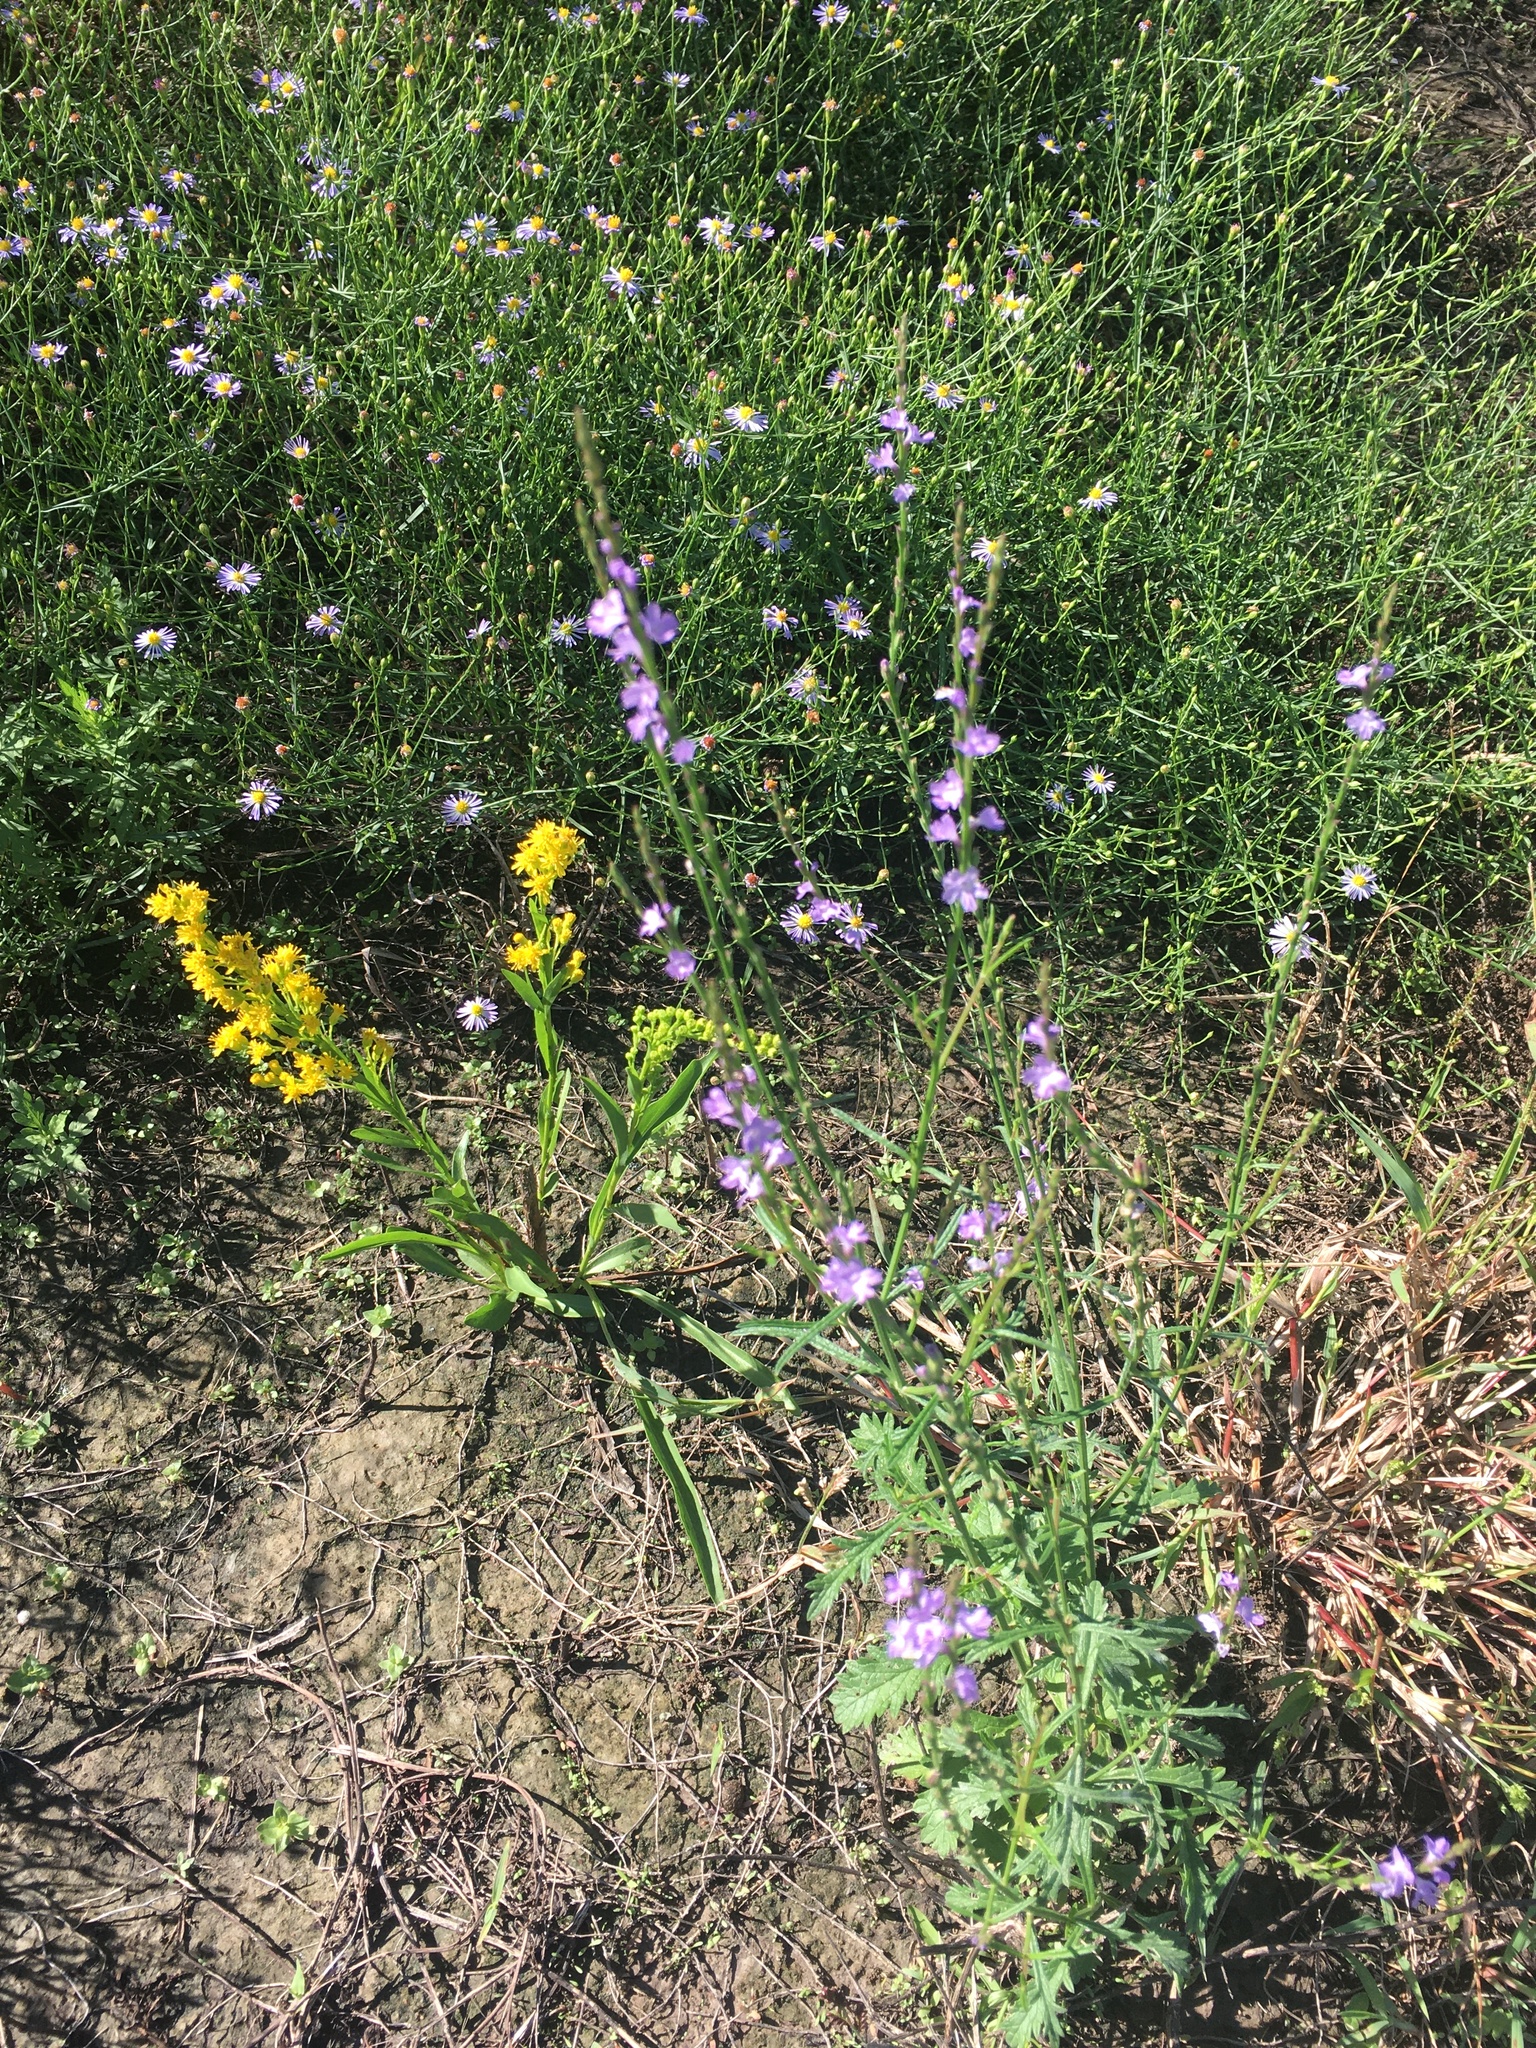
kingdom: Plantae
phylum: Tracheophyta
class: Magnoliopsida
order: Lamiales
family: Verbenaceae
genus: Verbena
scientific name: Verbena halei
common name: Texas vervain
